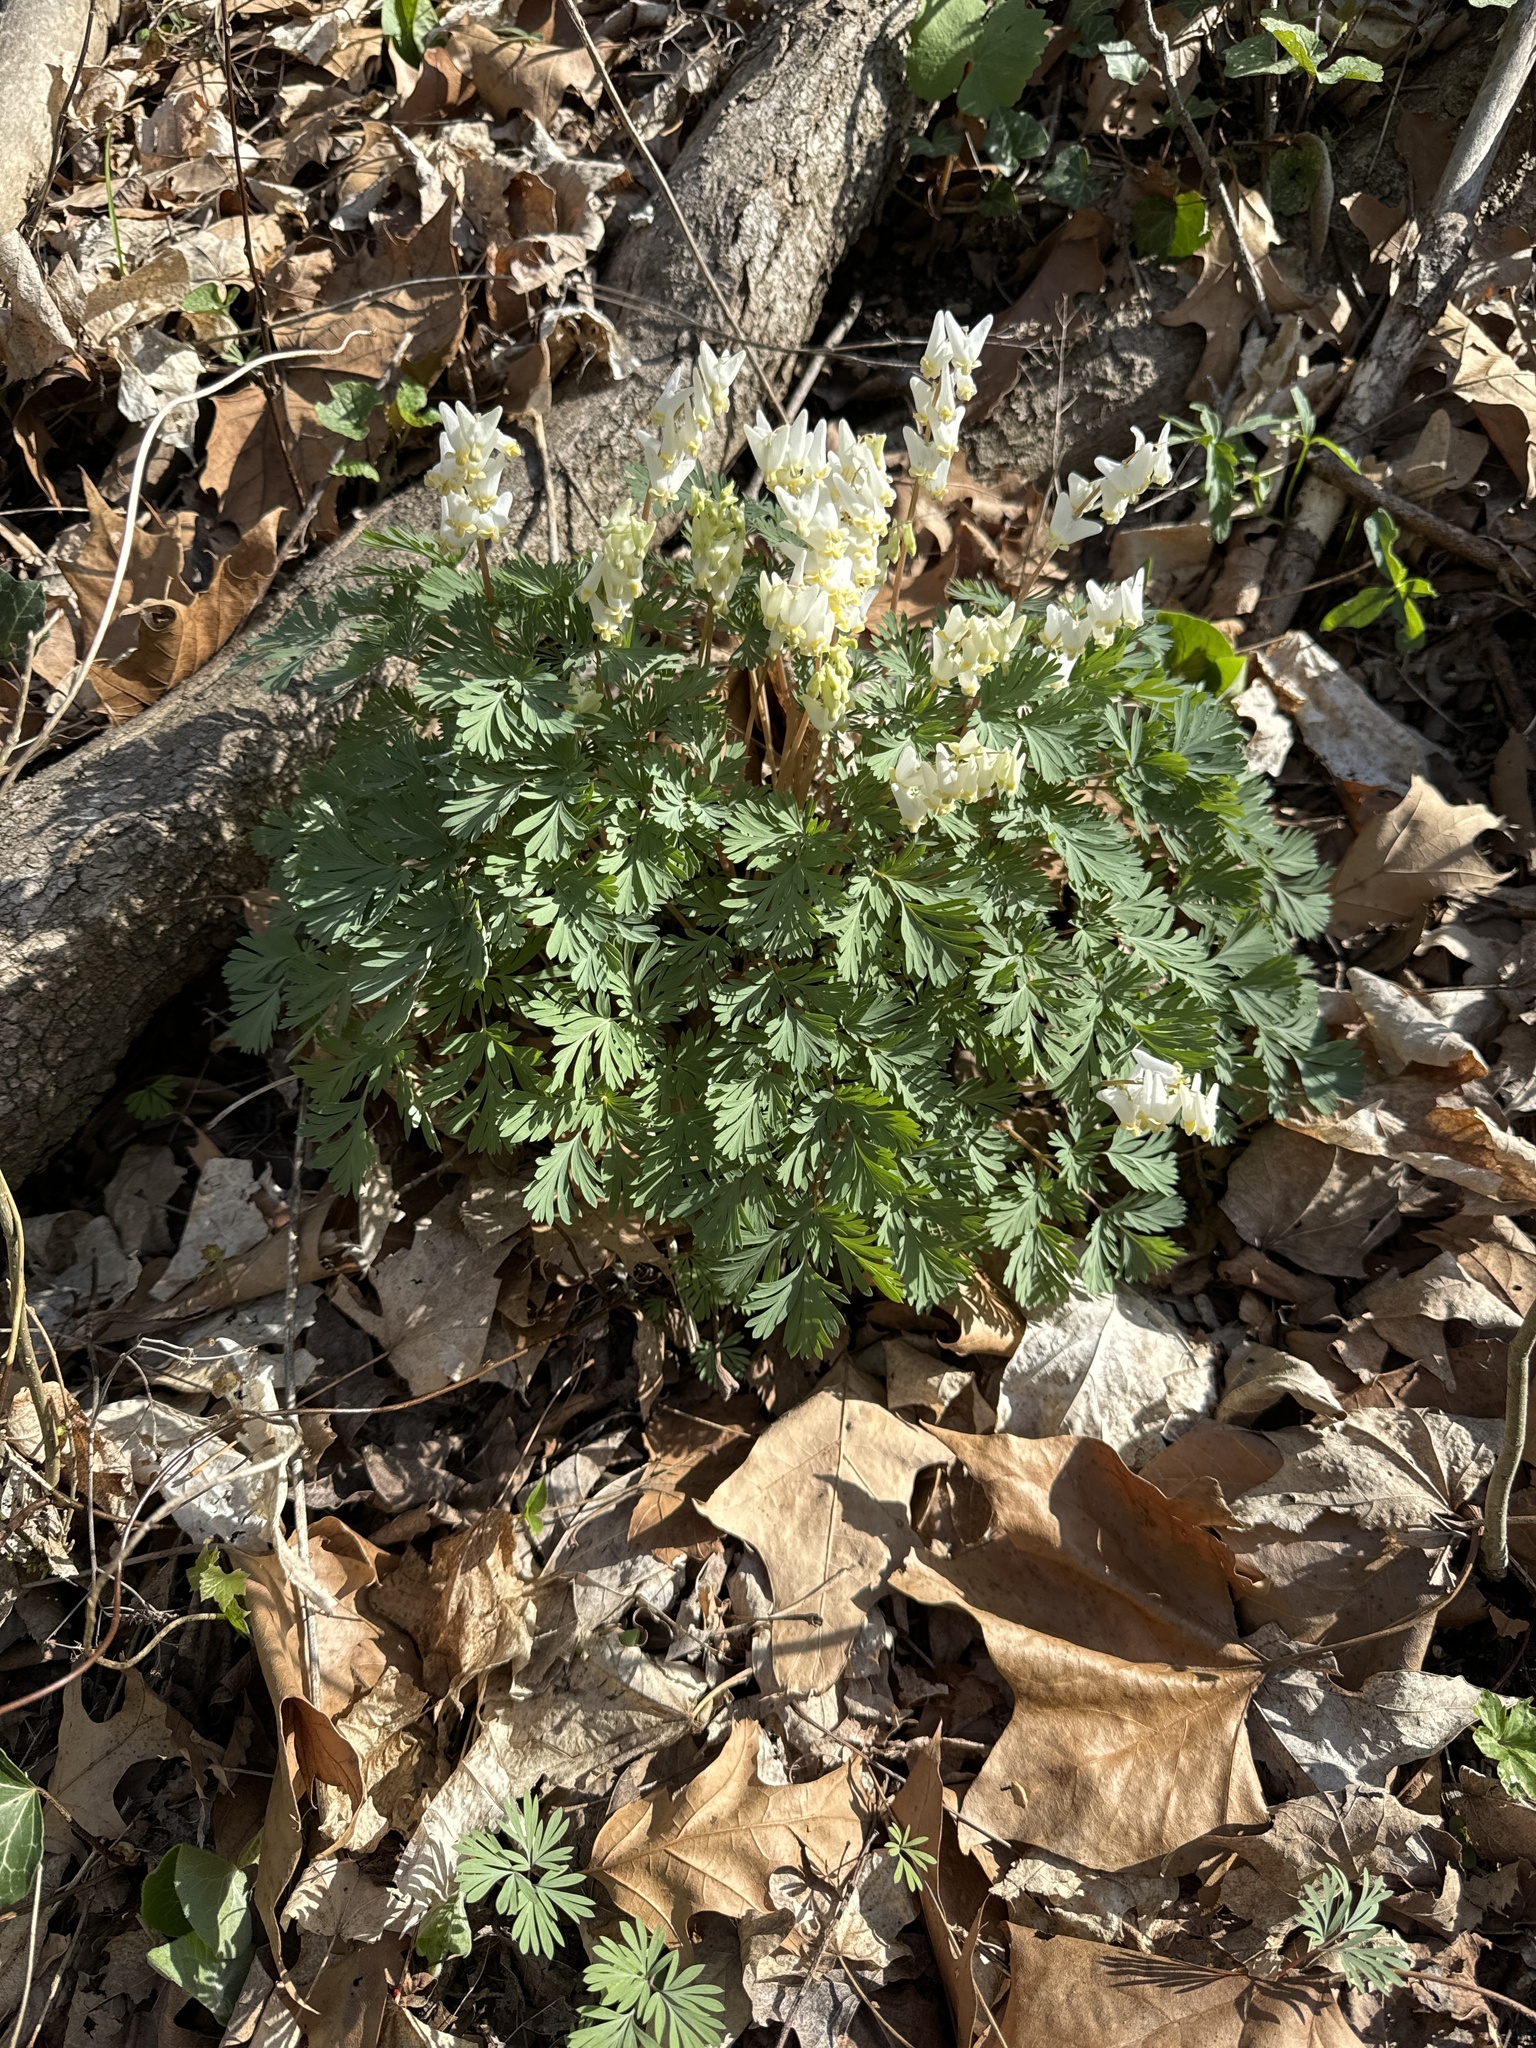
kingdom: Plantae
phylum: Tracheophyta
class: Magnoliopsida
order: Ranunculales
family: Papaveraceae
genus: Dicentra
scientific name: Dicentra cucullaria
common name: Dutchman's breeches
